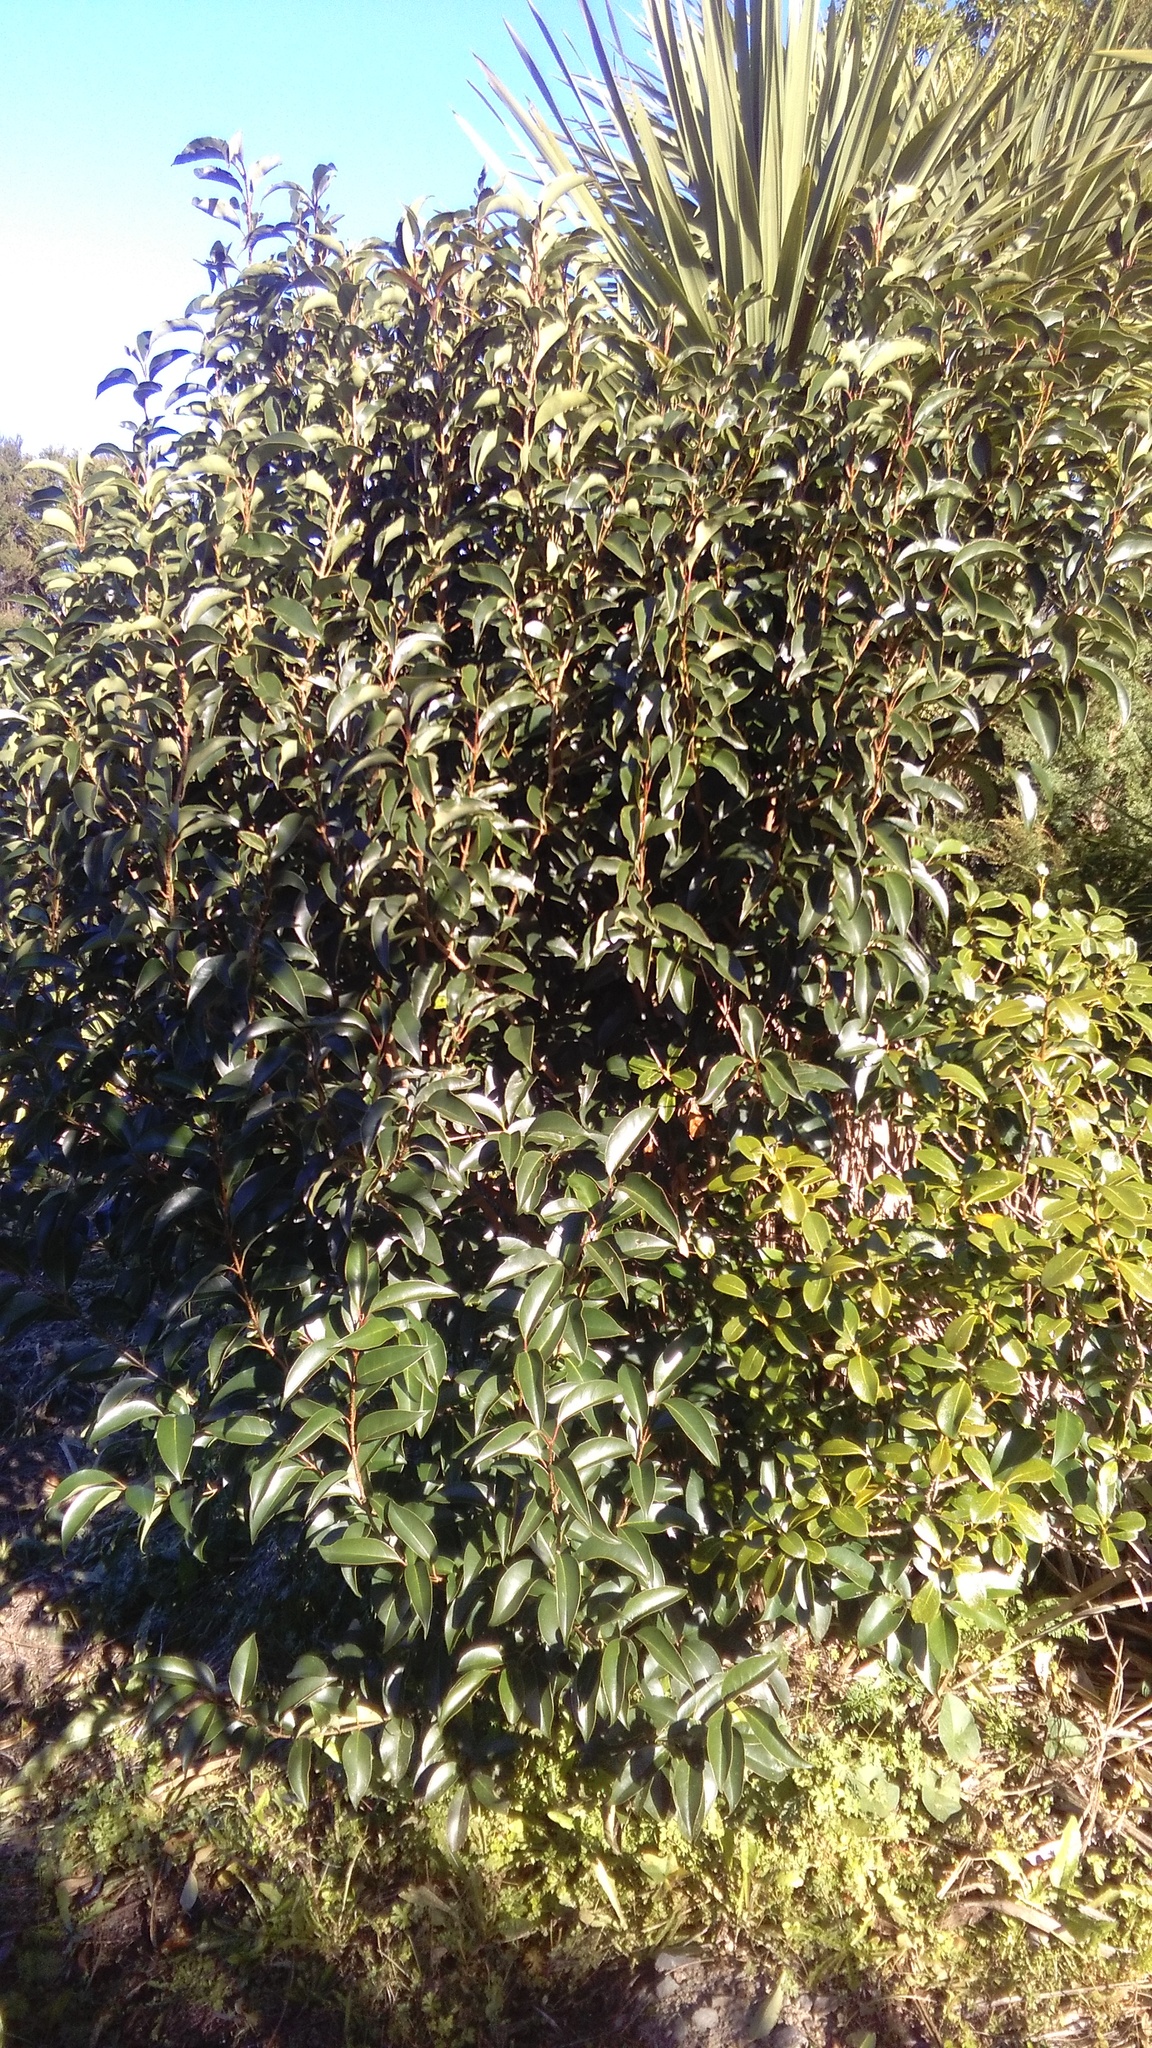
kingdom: Plantae
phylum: Tracheophyta
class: Magnoliopsida
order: Lamiales
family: Oleaceae
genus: Ligustrum
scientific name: Ligustrum lucidum
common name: Glossy privet
